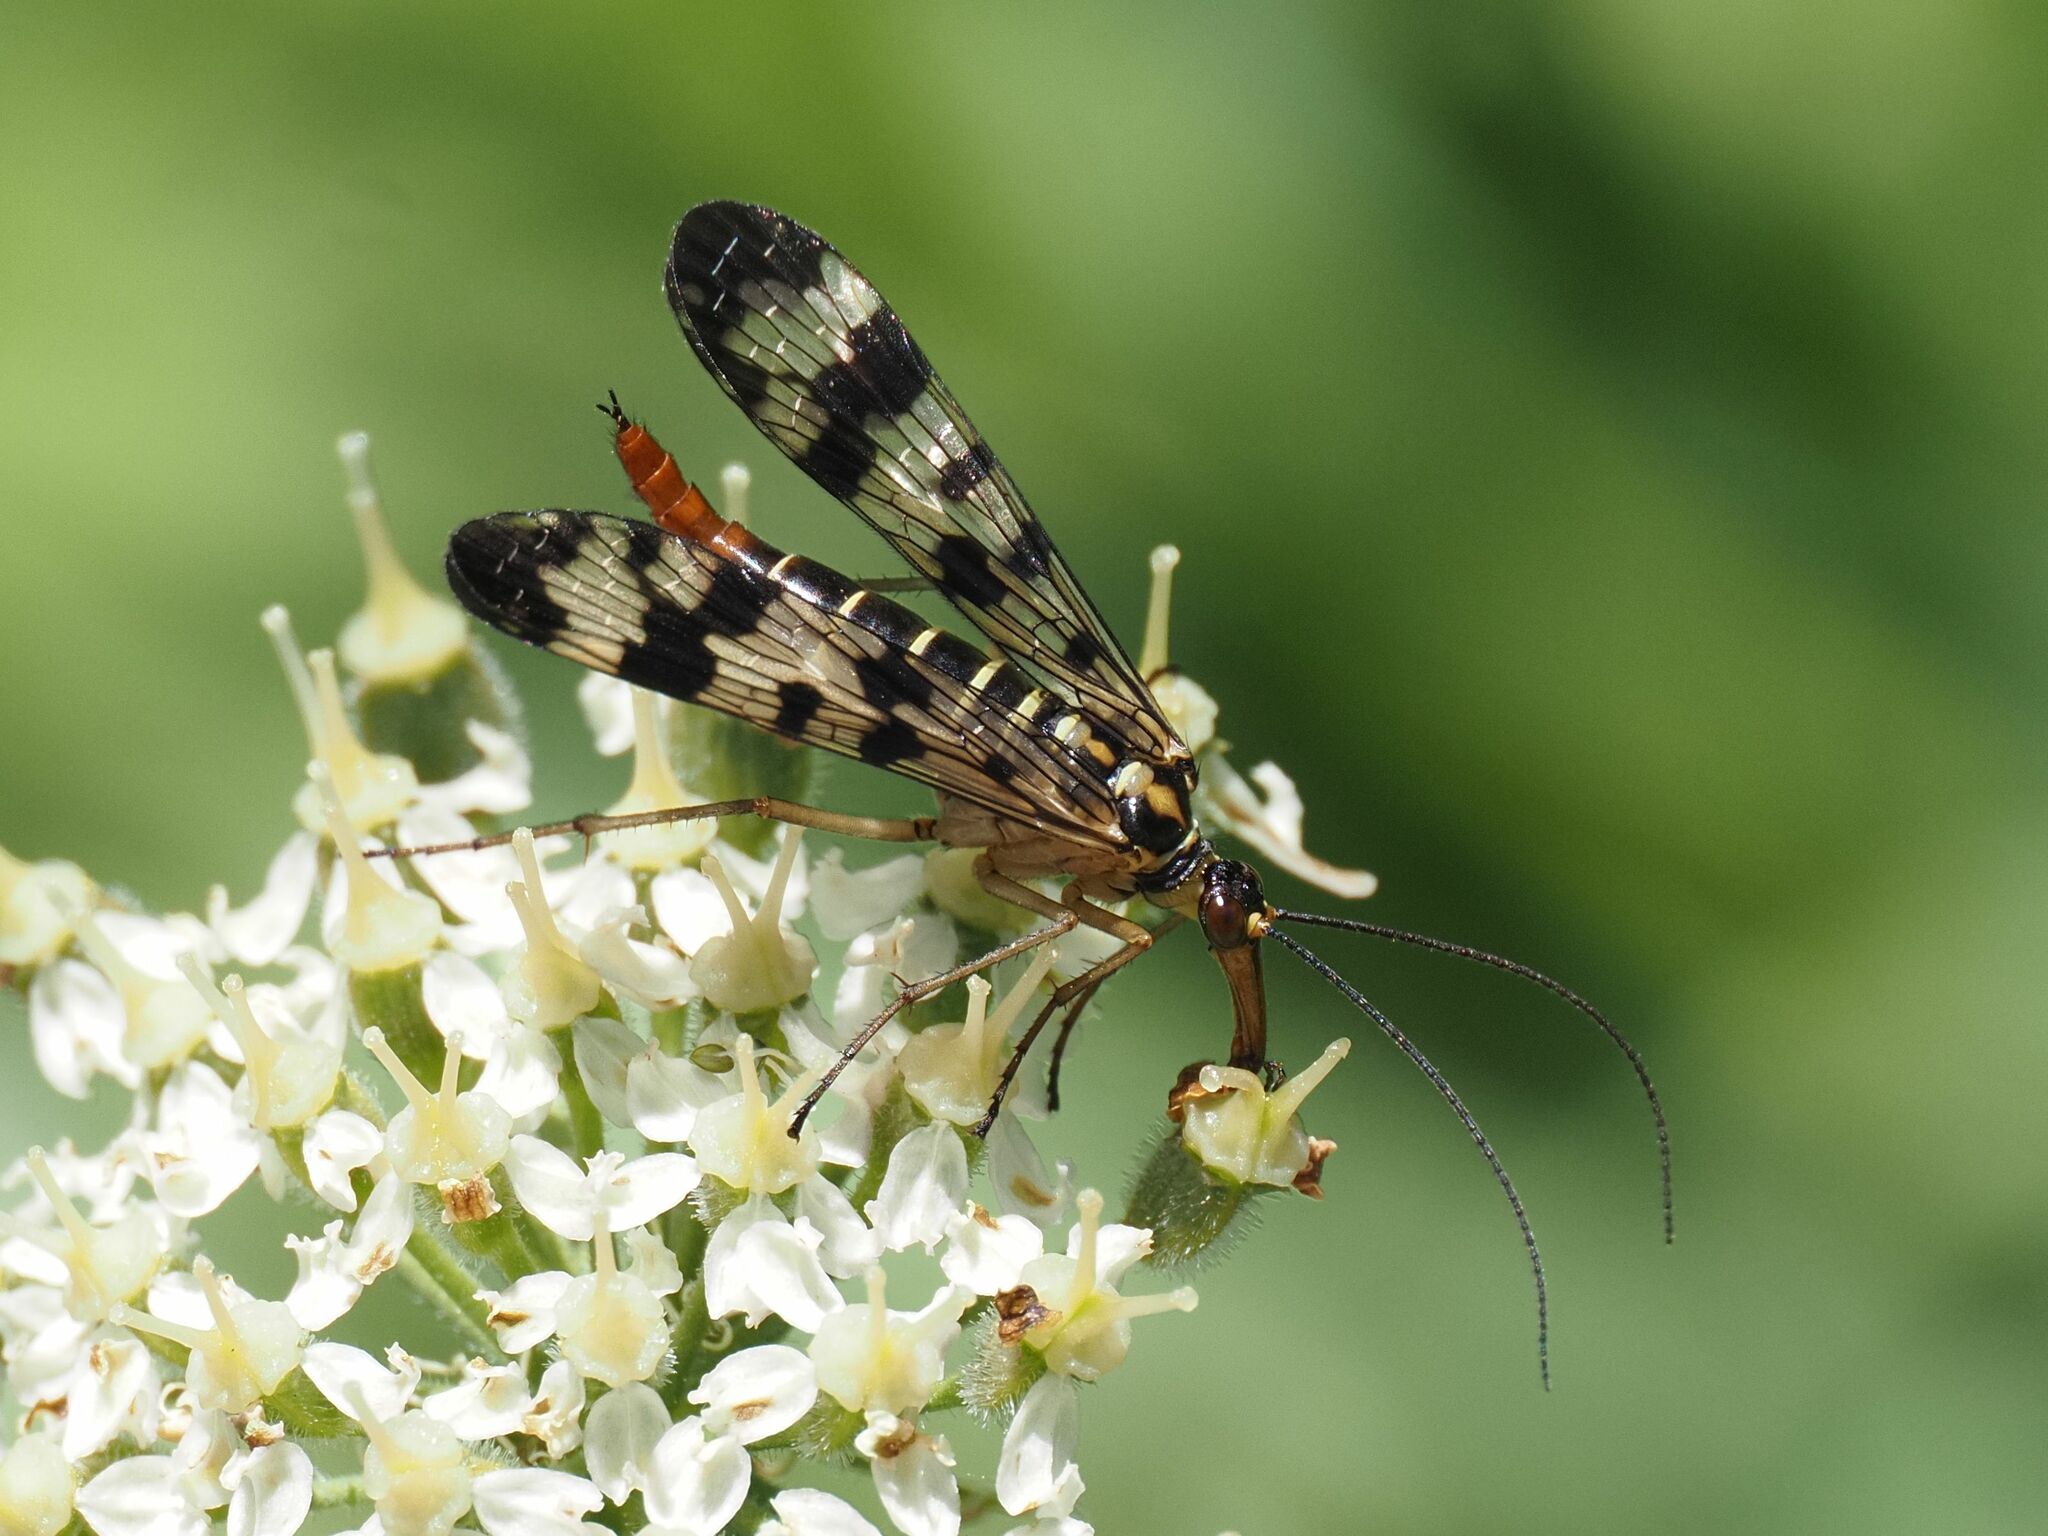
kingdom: Animalia
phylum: Arthropoda
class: Insecta
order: Mecoptera
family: Panorpidae
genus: Panorpa
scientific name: Panorpa communis
